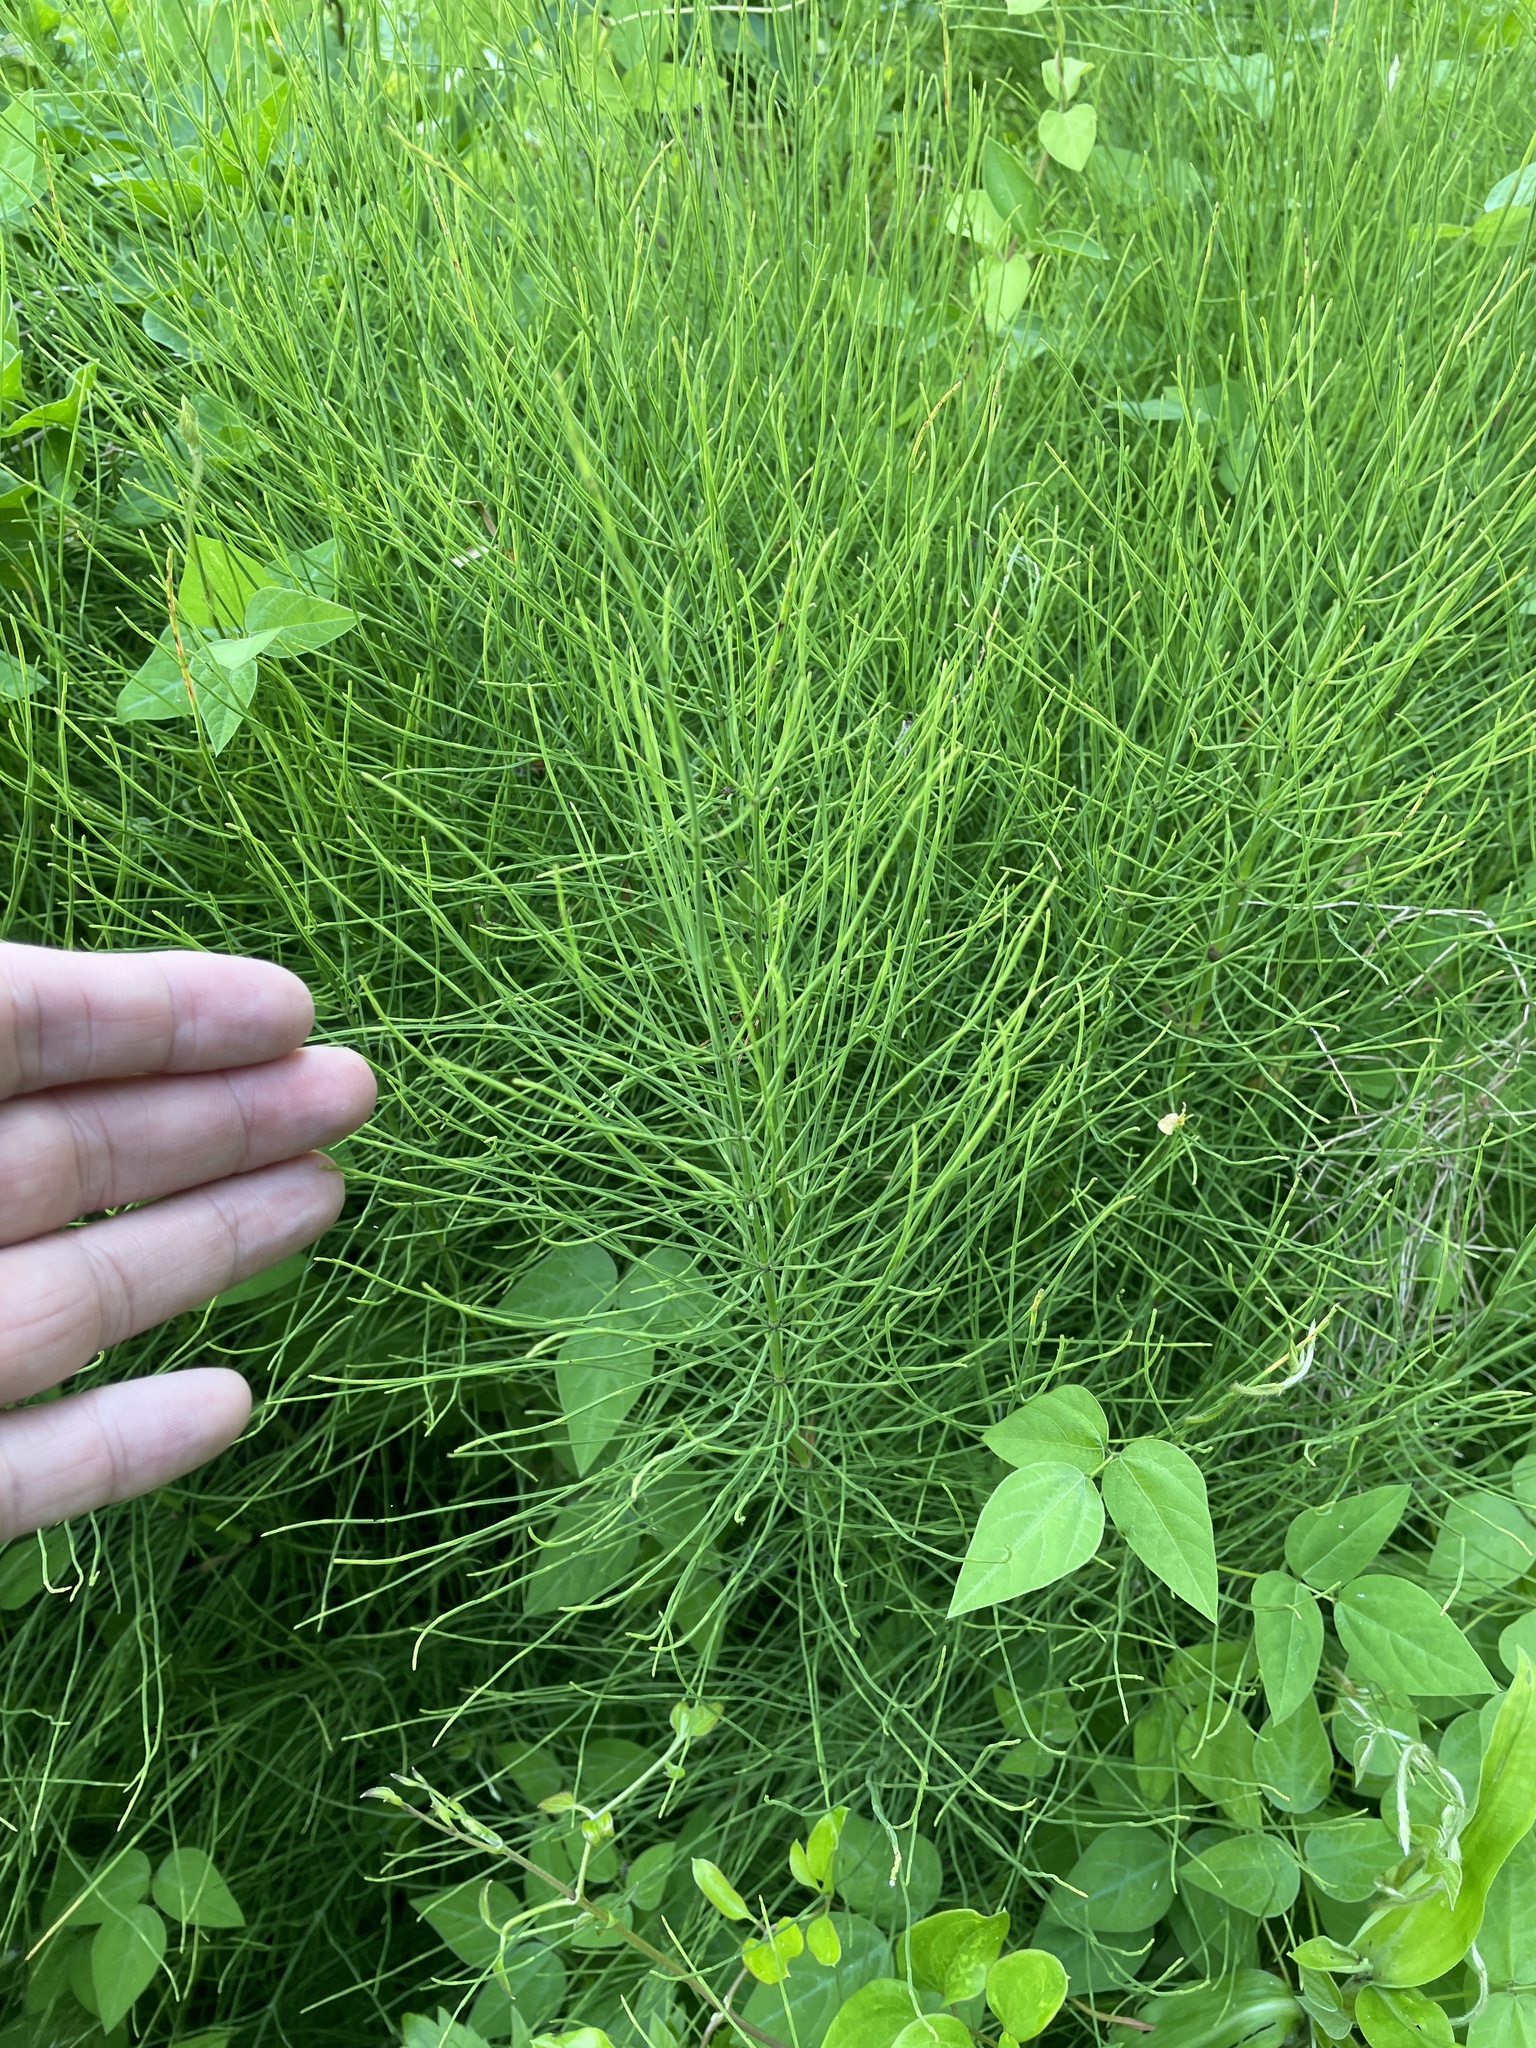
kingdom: Plantae
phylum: Tracheophyta
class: Polypodiopsida
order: Equisetales
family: Equisetaceae
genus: Equisetum
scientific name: Equisetum arvense
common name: Field horsetail
